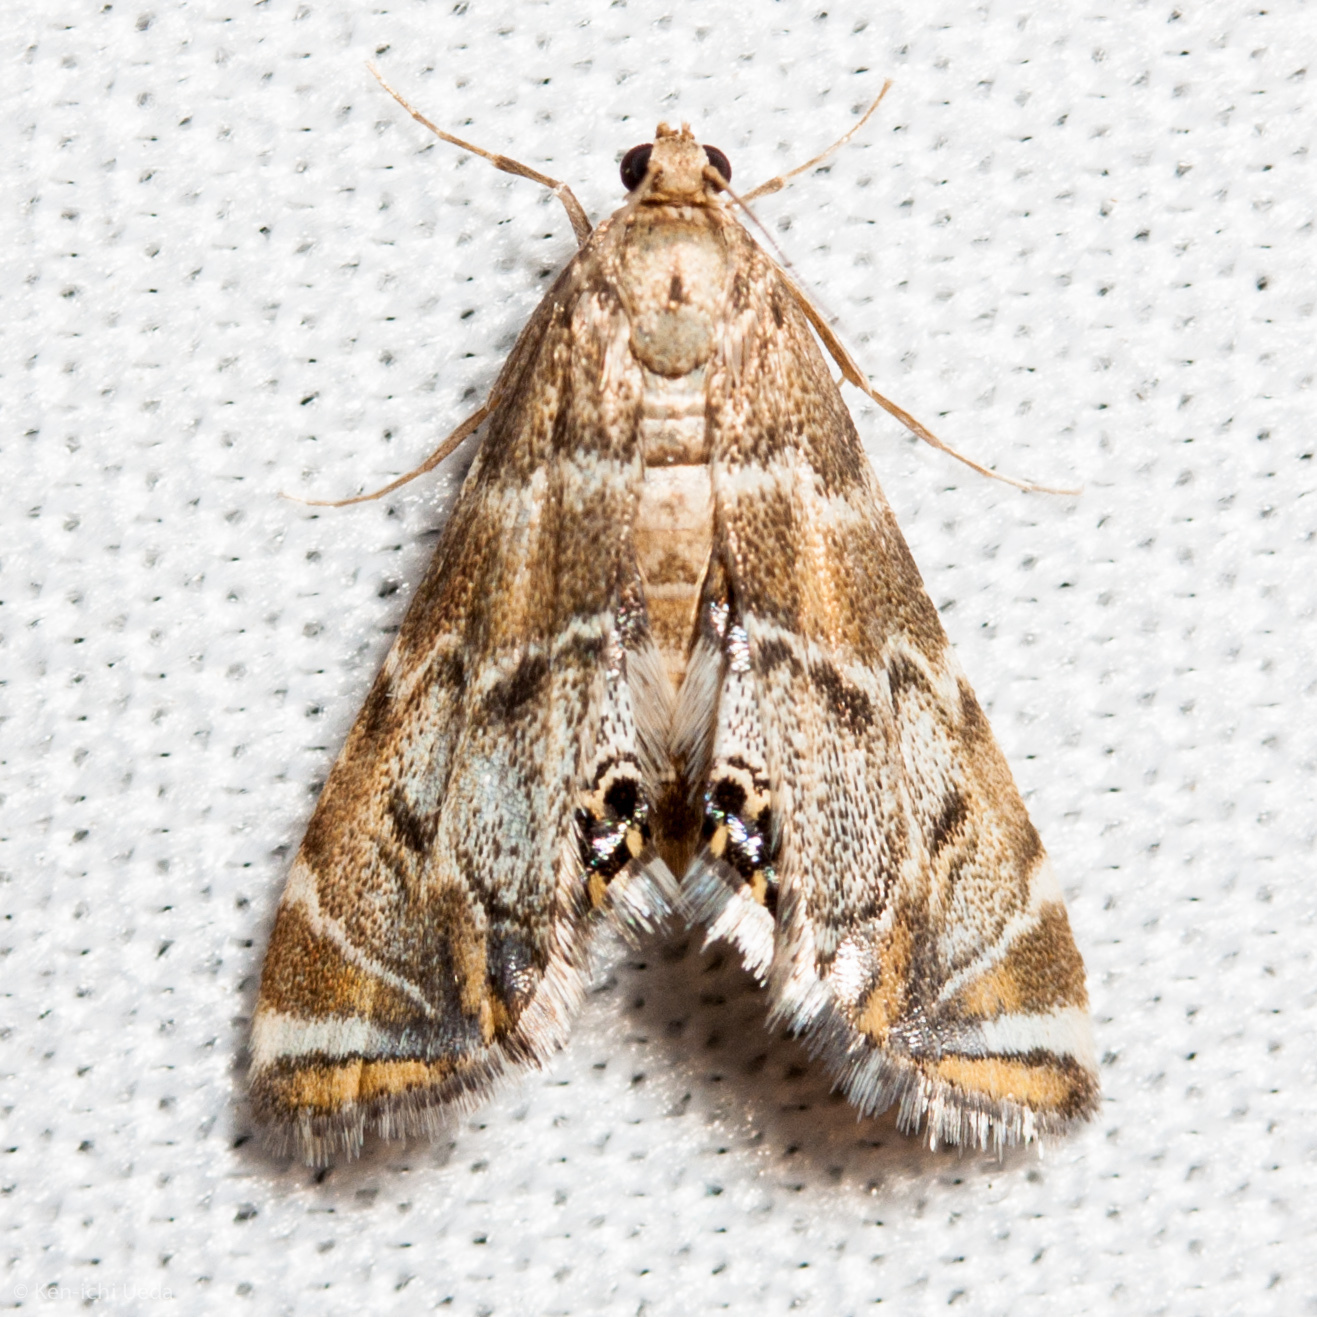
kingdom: Animalia
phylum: Arthropoda
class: Insecta
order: Lepidoptera
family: Crambidae
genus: Petrophila
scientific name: Petrophila confusalis
